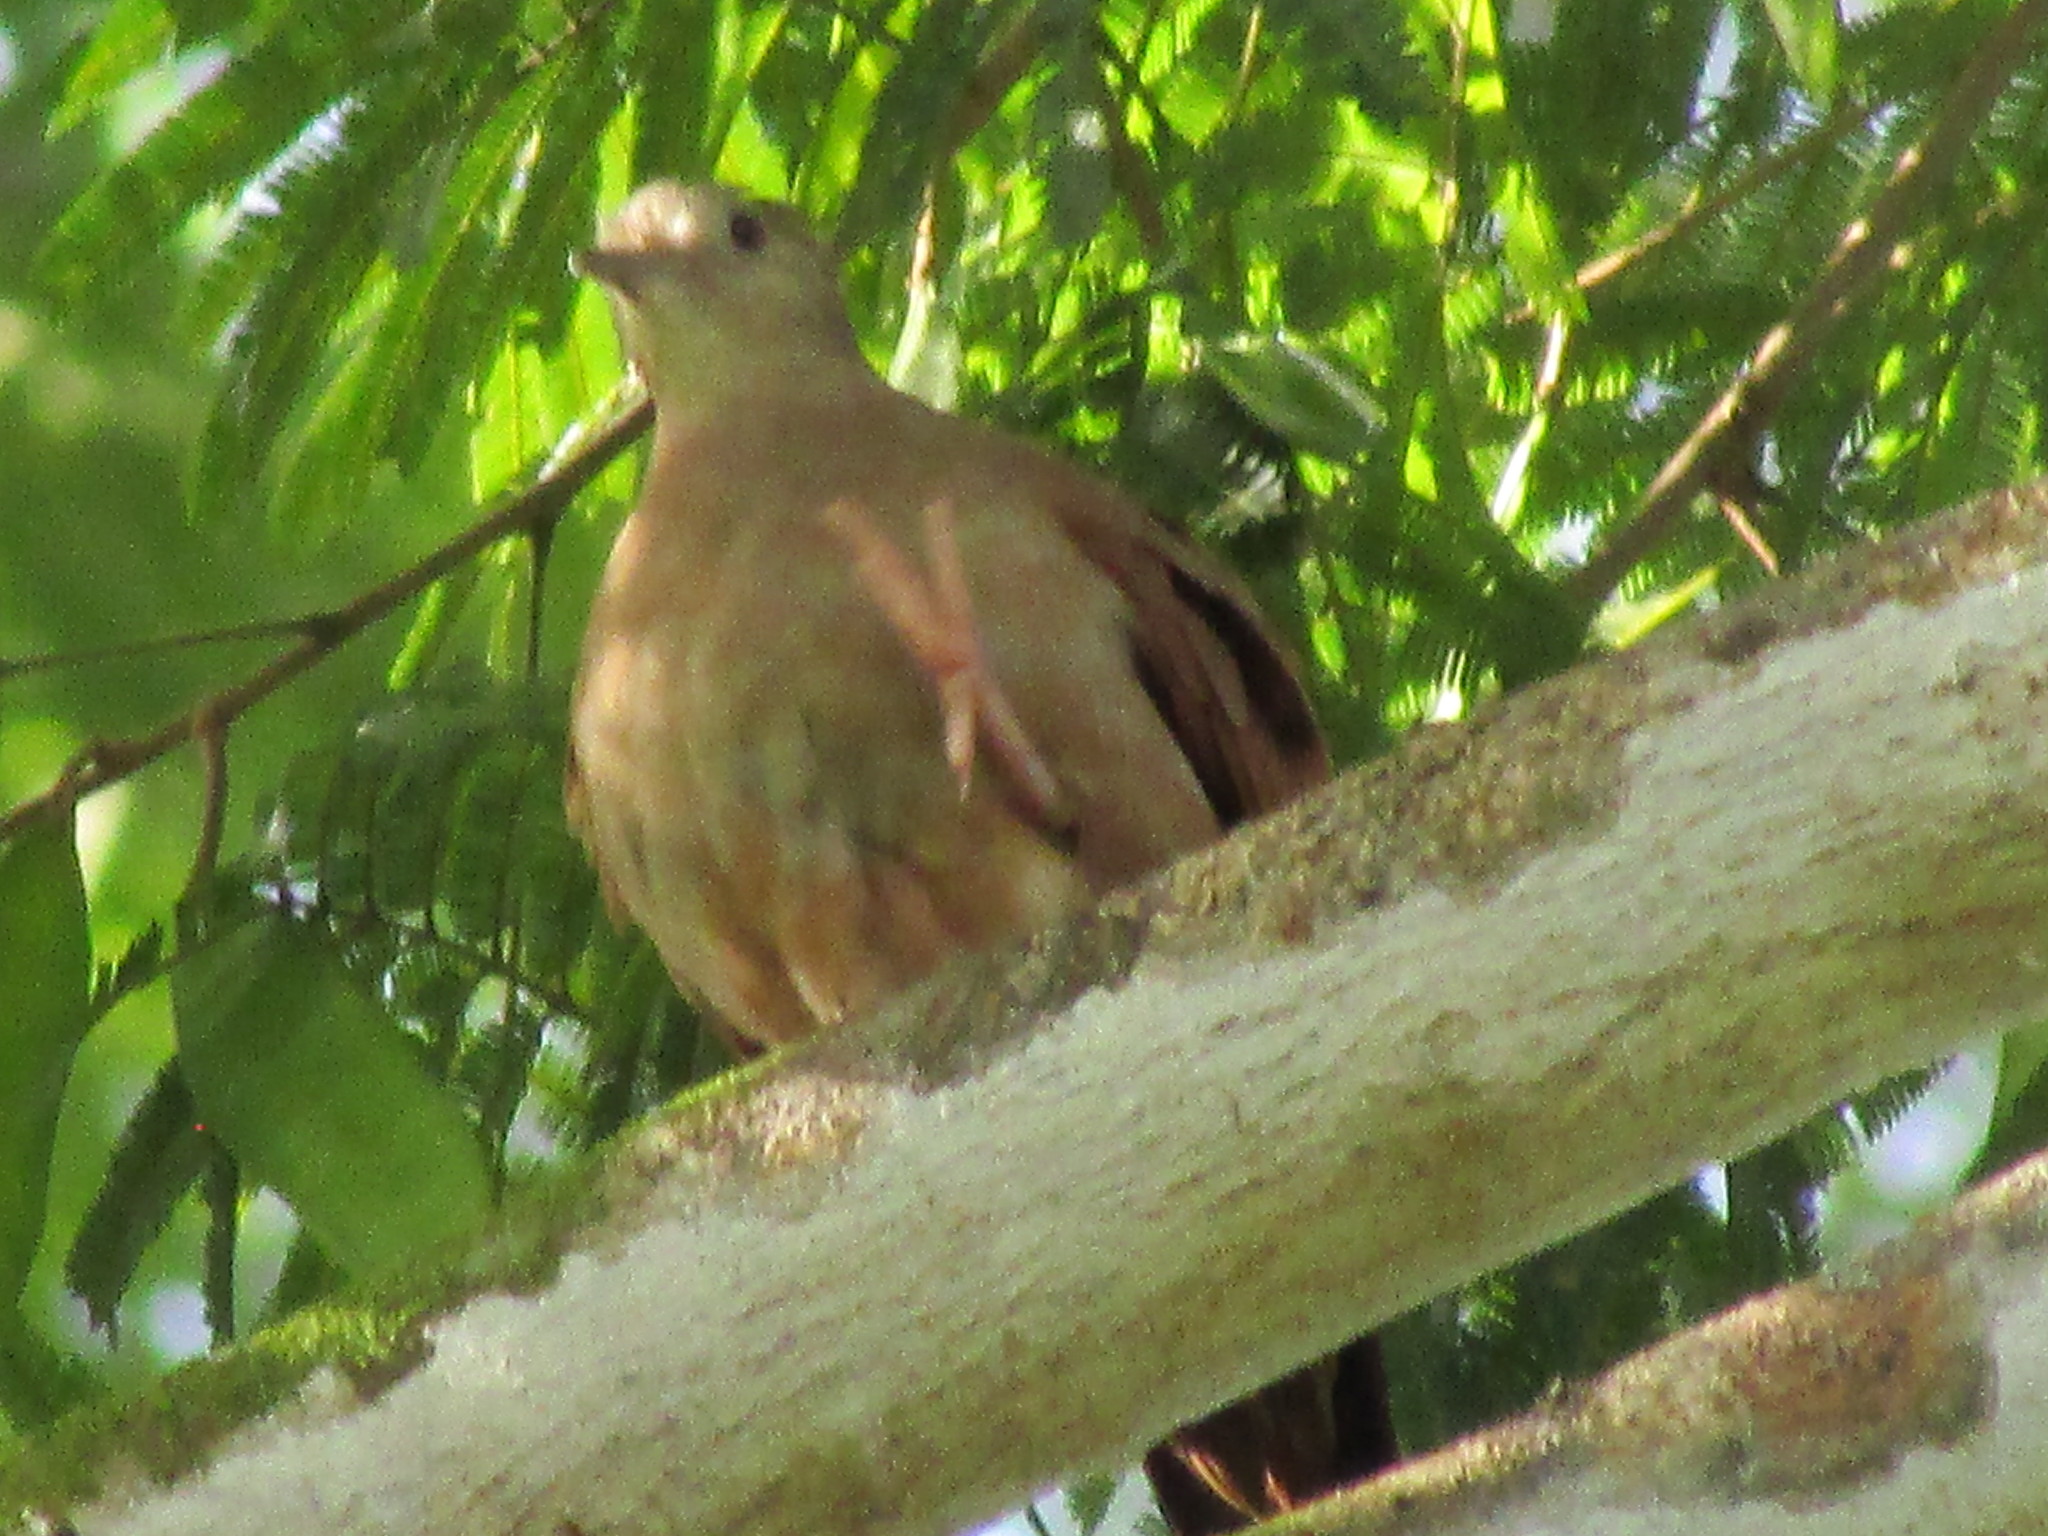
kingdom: Animalia
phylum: Chordata
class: Aves
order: Columbiformes
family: Columbidae
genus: Leptotila
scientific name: Leptotila verreauxi
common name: White-tipped dove
